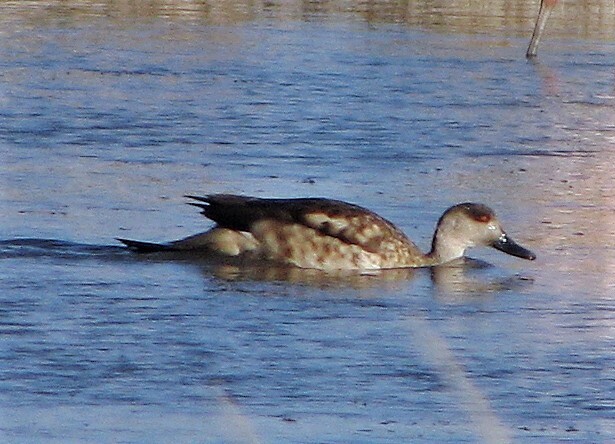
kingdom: Animalia
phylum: Chordata
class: Aves
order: Anseriformes
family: Anatidae
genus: Lophonetta
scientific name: Lophonetta specularioides
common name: Crested duck
